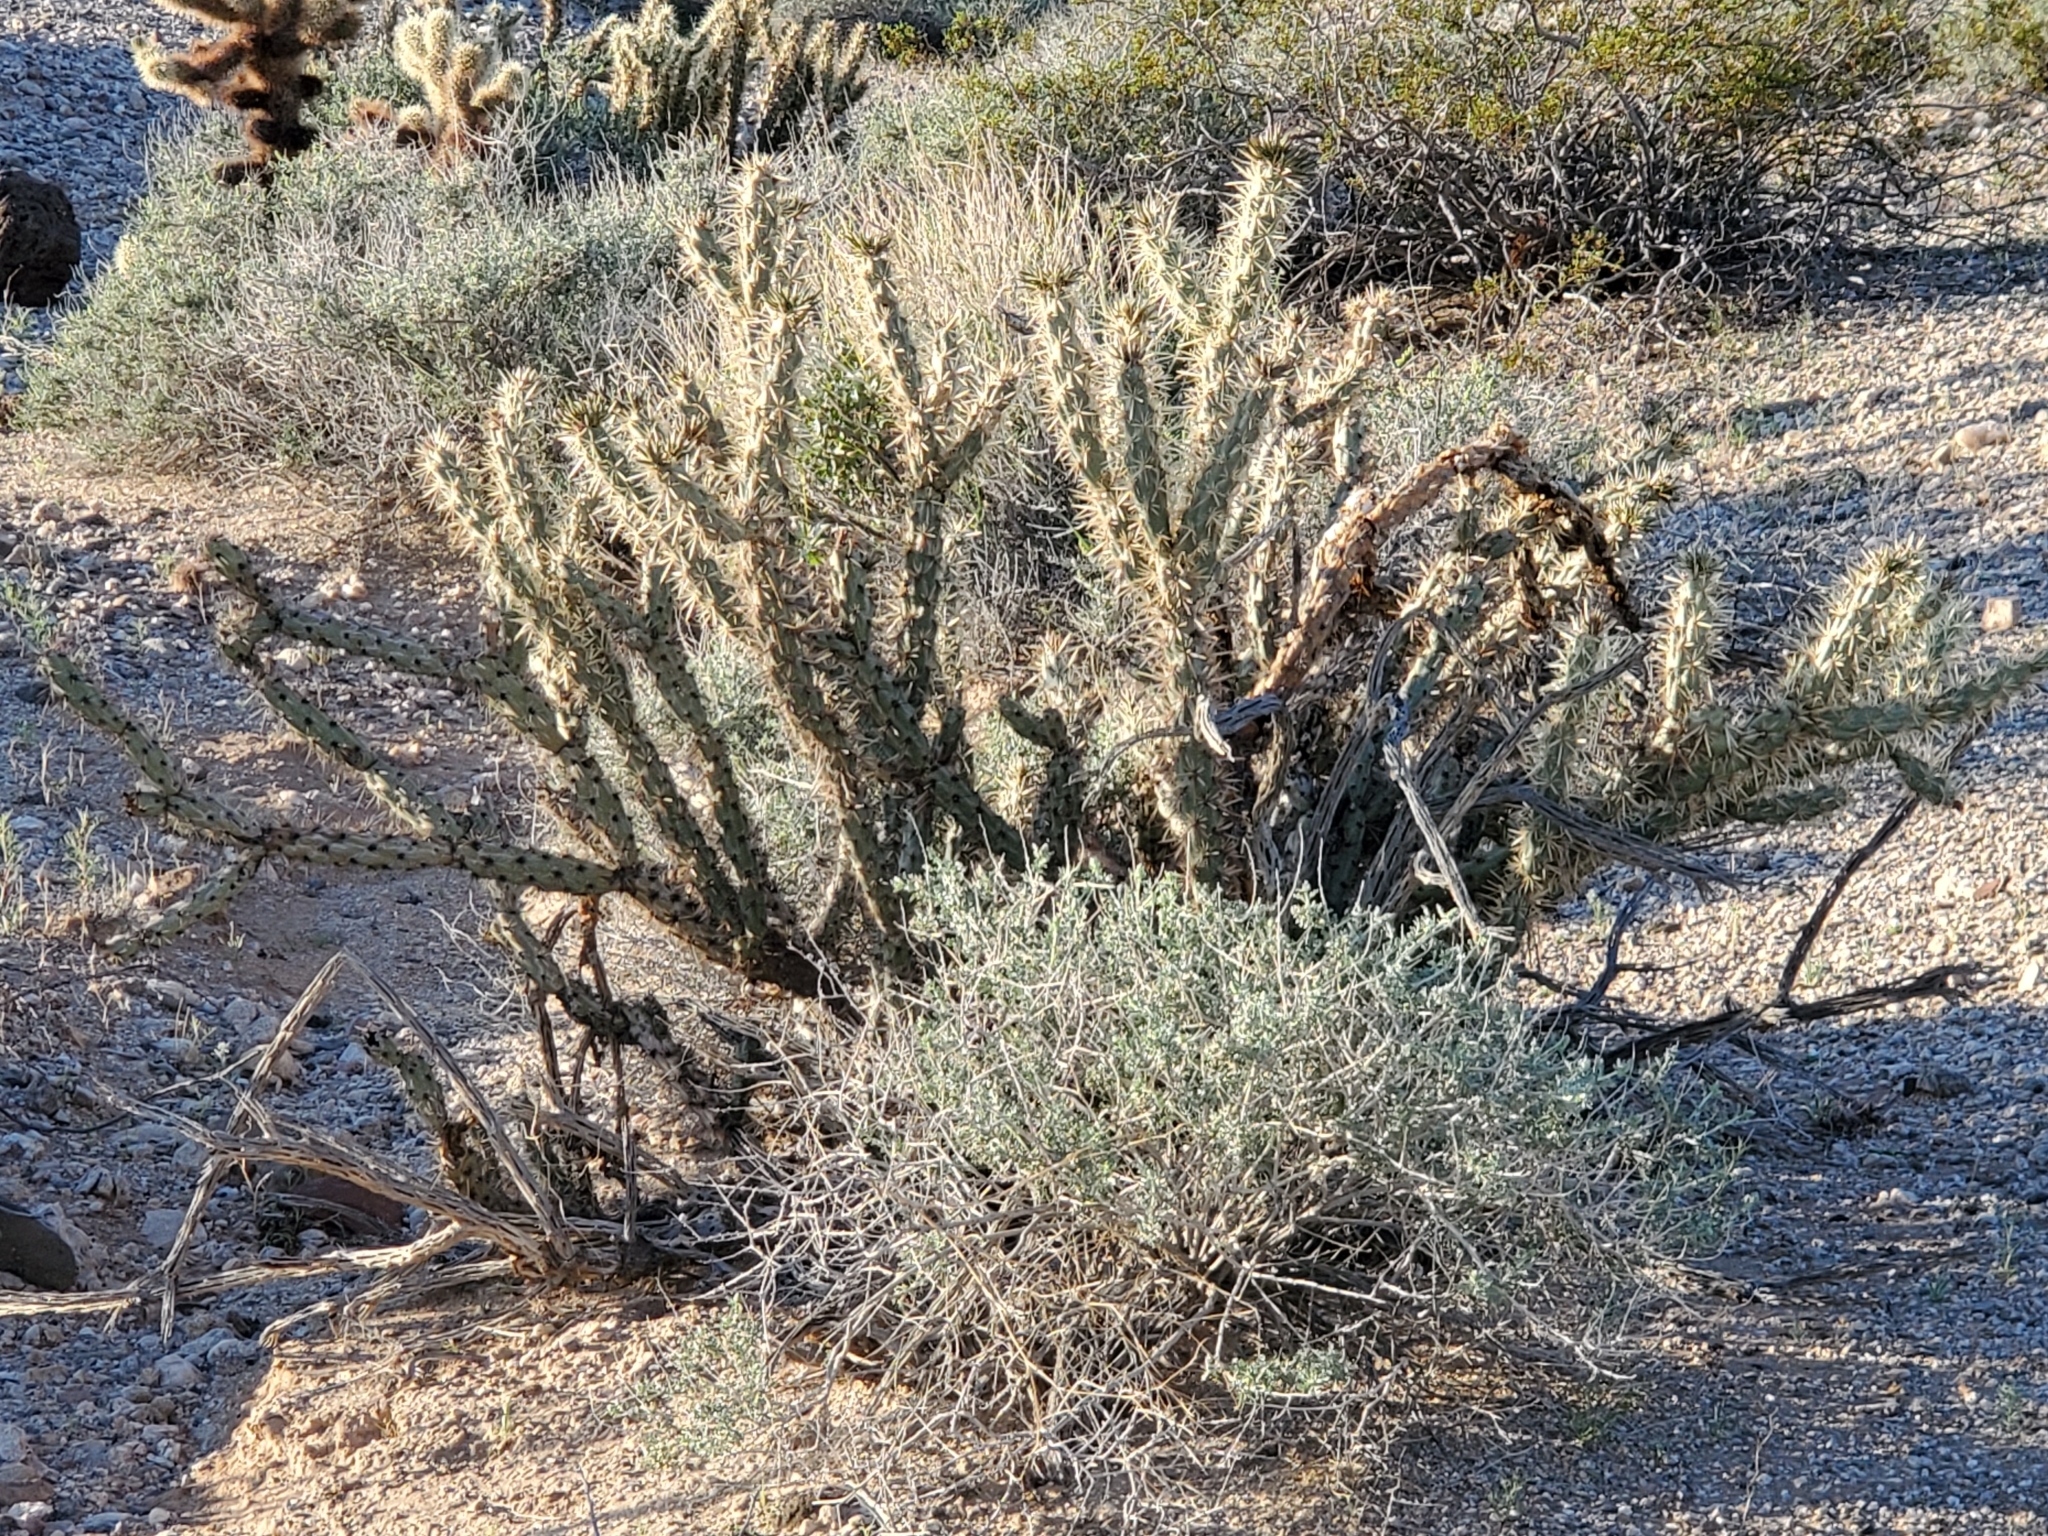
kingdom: Plantae
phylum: Tracheophyta
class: Magnoliopsida
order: Caryophyllales
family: Cactaceae
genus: Cylindropuntia
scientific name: Cylindropuntia acanthocarpa
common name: Buckhorn cholla
